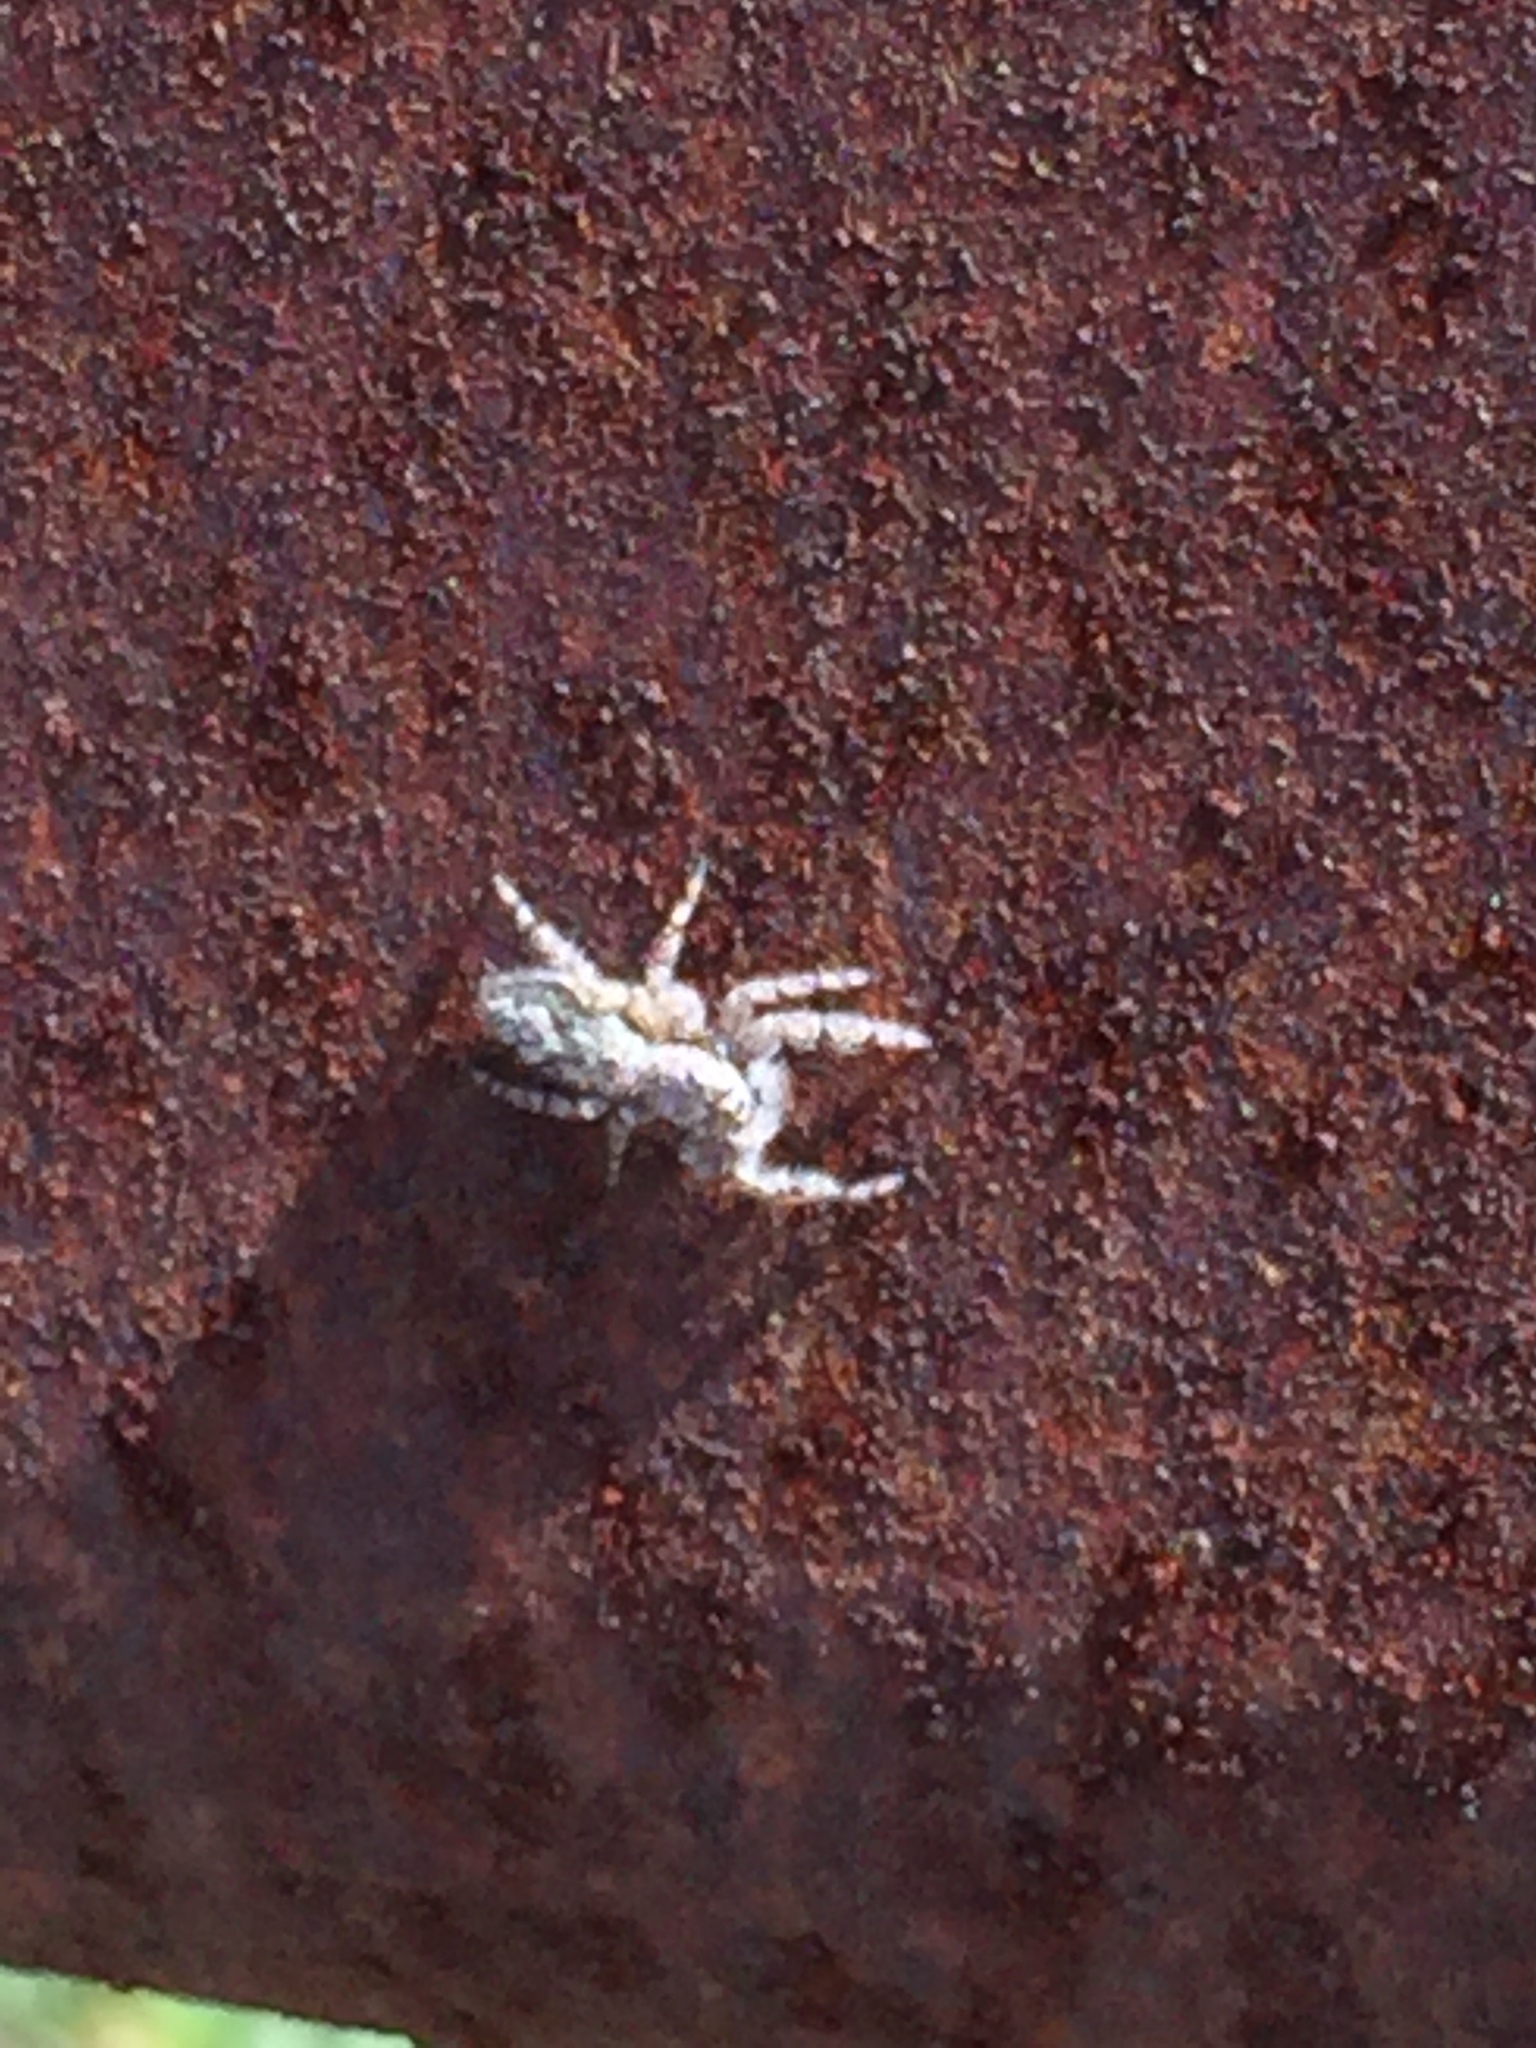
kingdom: Animalia
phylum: Arthropoda
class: Arachnida
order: Araneae
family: Salticidae
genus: Platycryptus
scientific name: Platycryptus undatus
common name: Tan jumping spider
